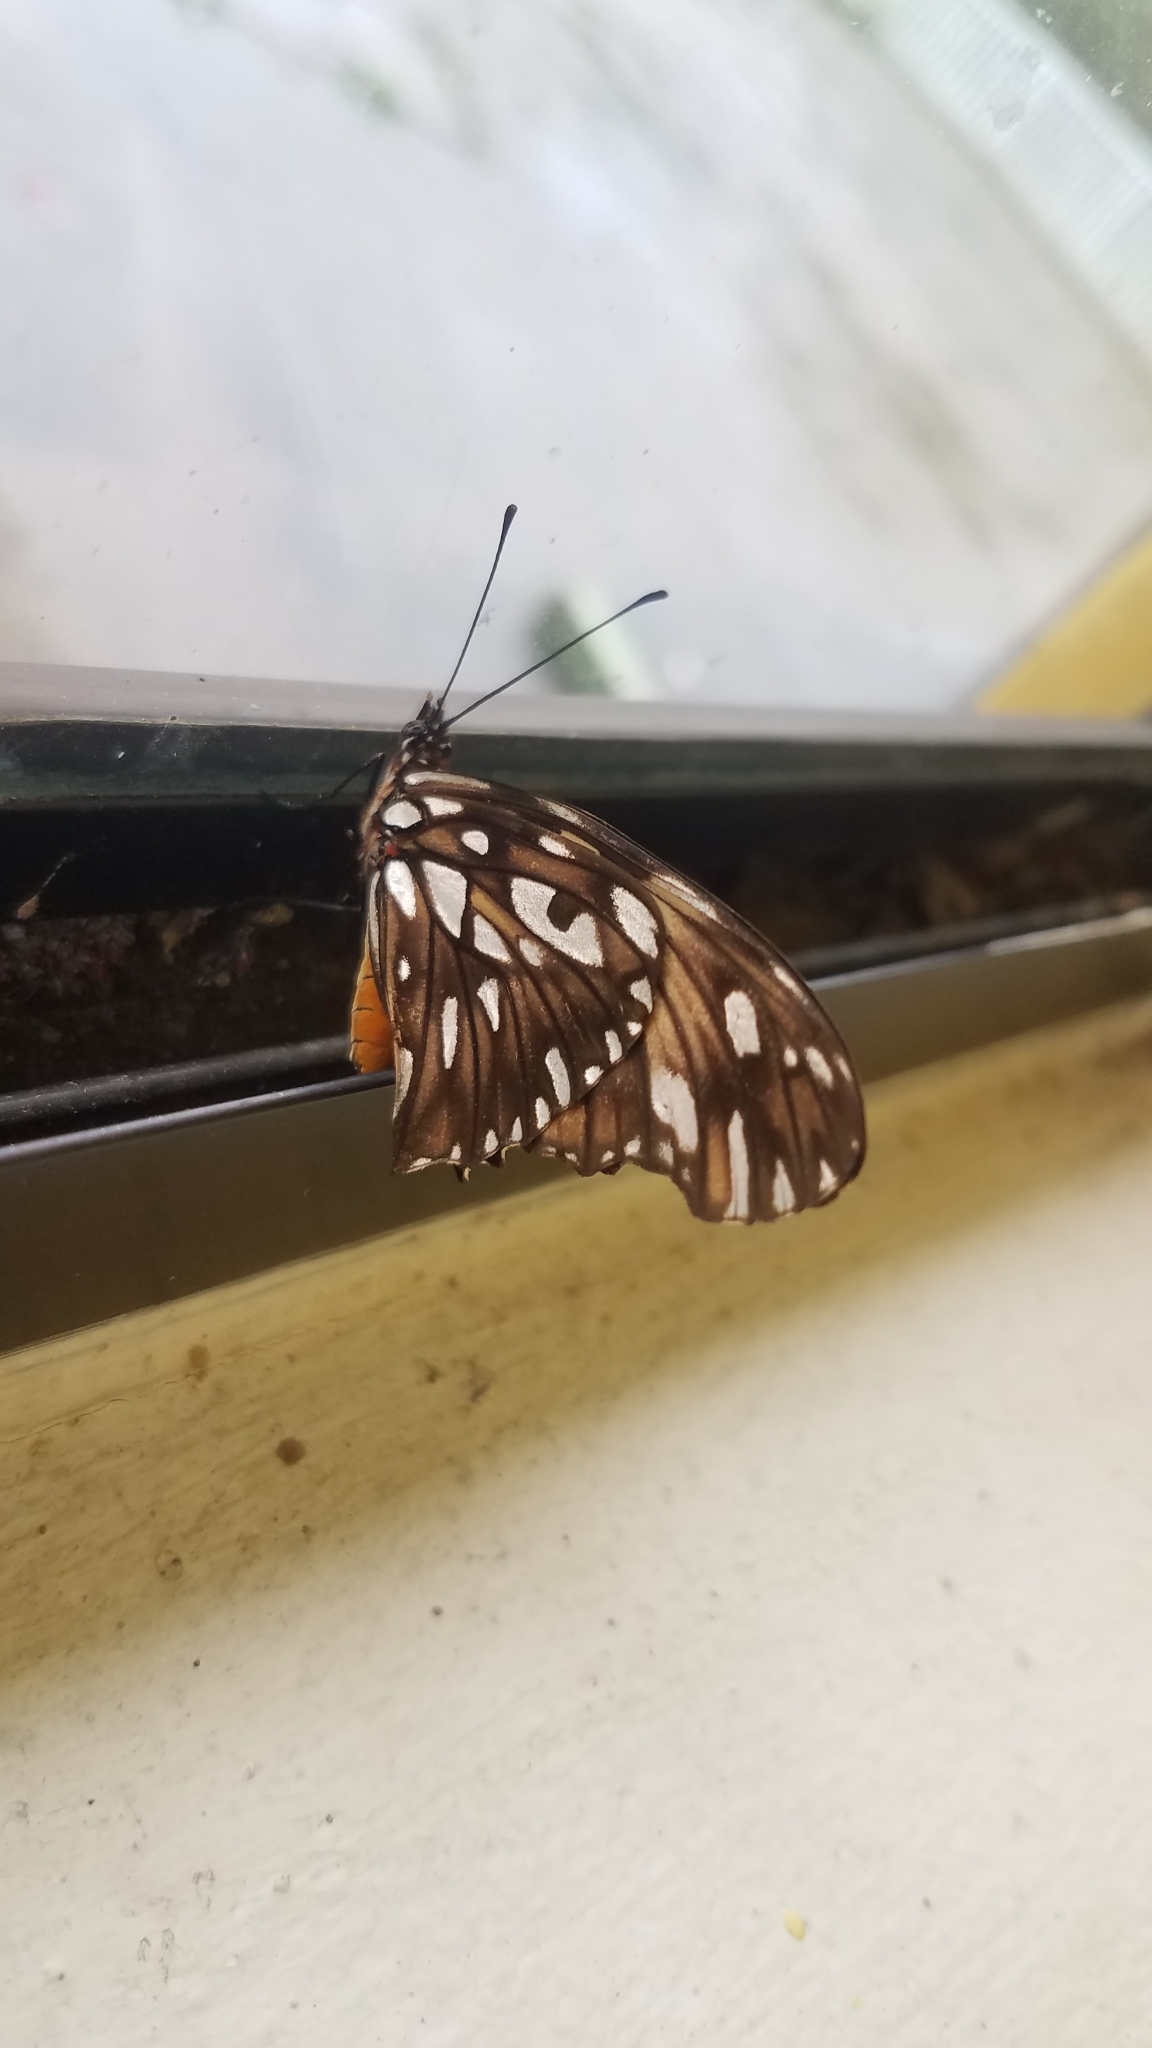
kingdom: Animalia
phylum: Arthropoda
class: Insecta
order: Lepidoptera
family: Nymphalidae
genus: Dione
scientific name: Dione juno
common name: Juno silverspot
